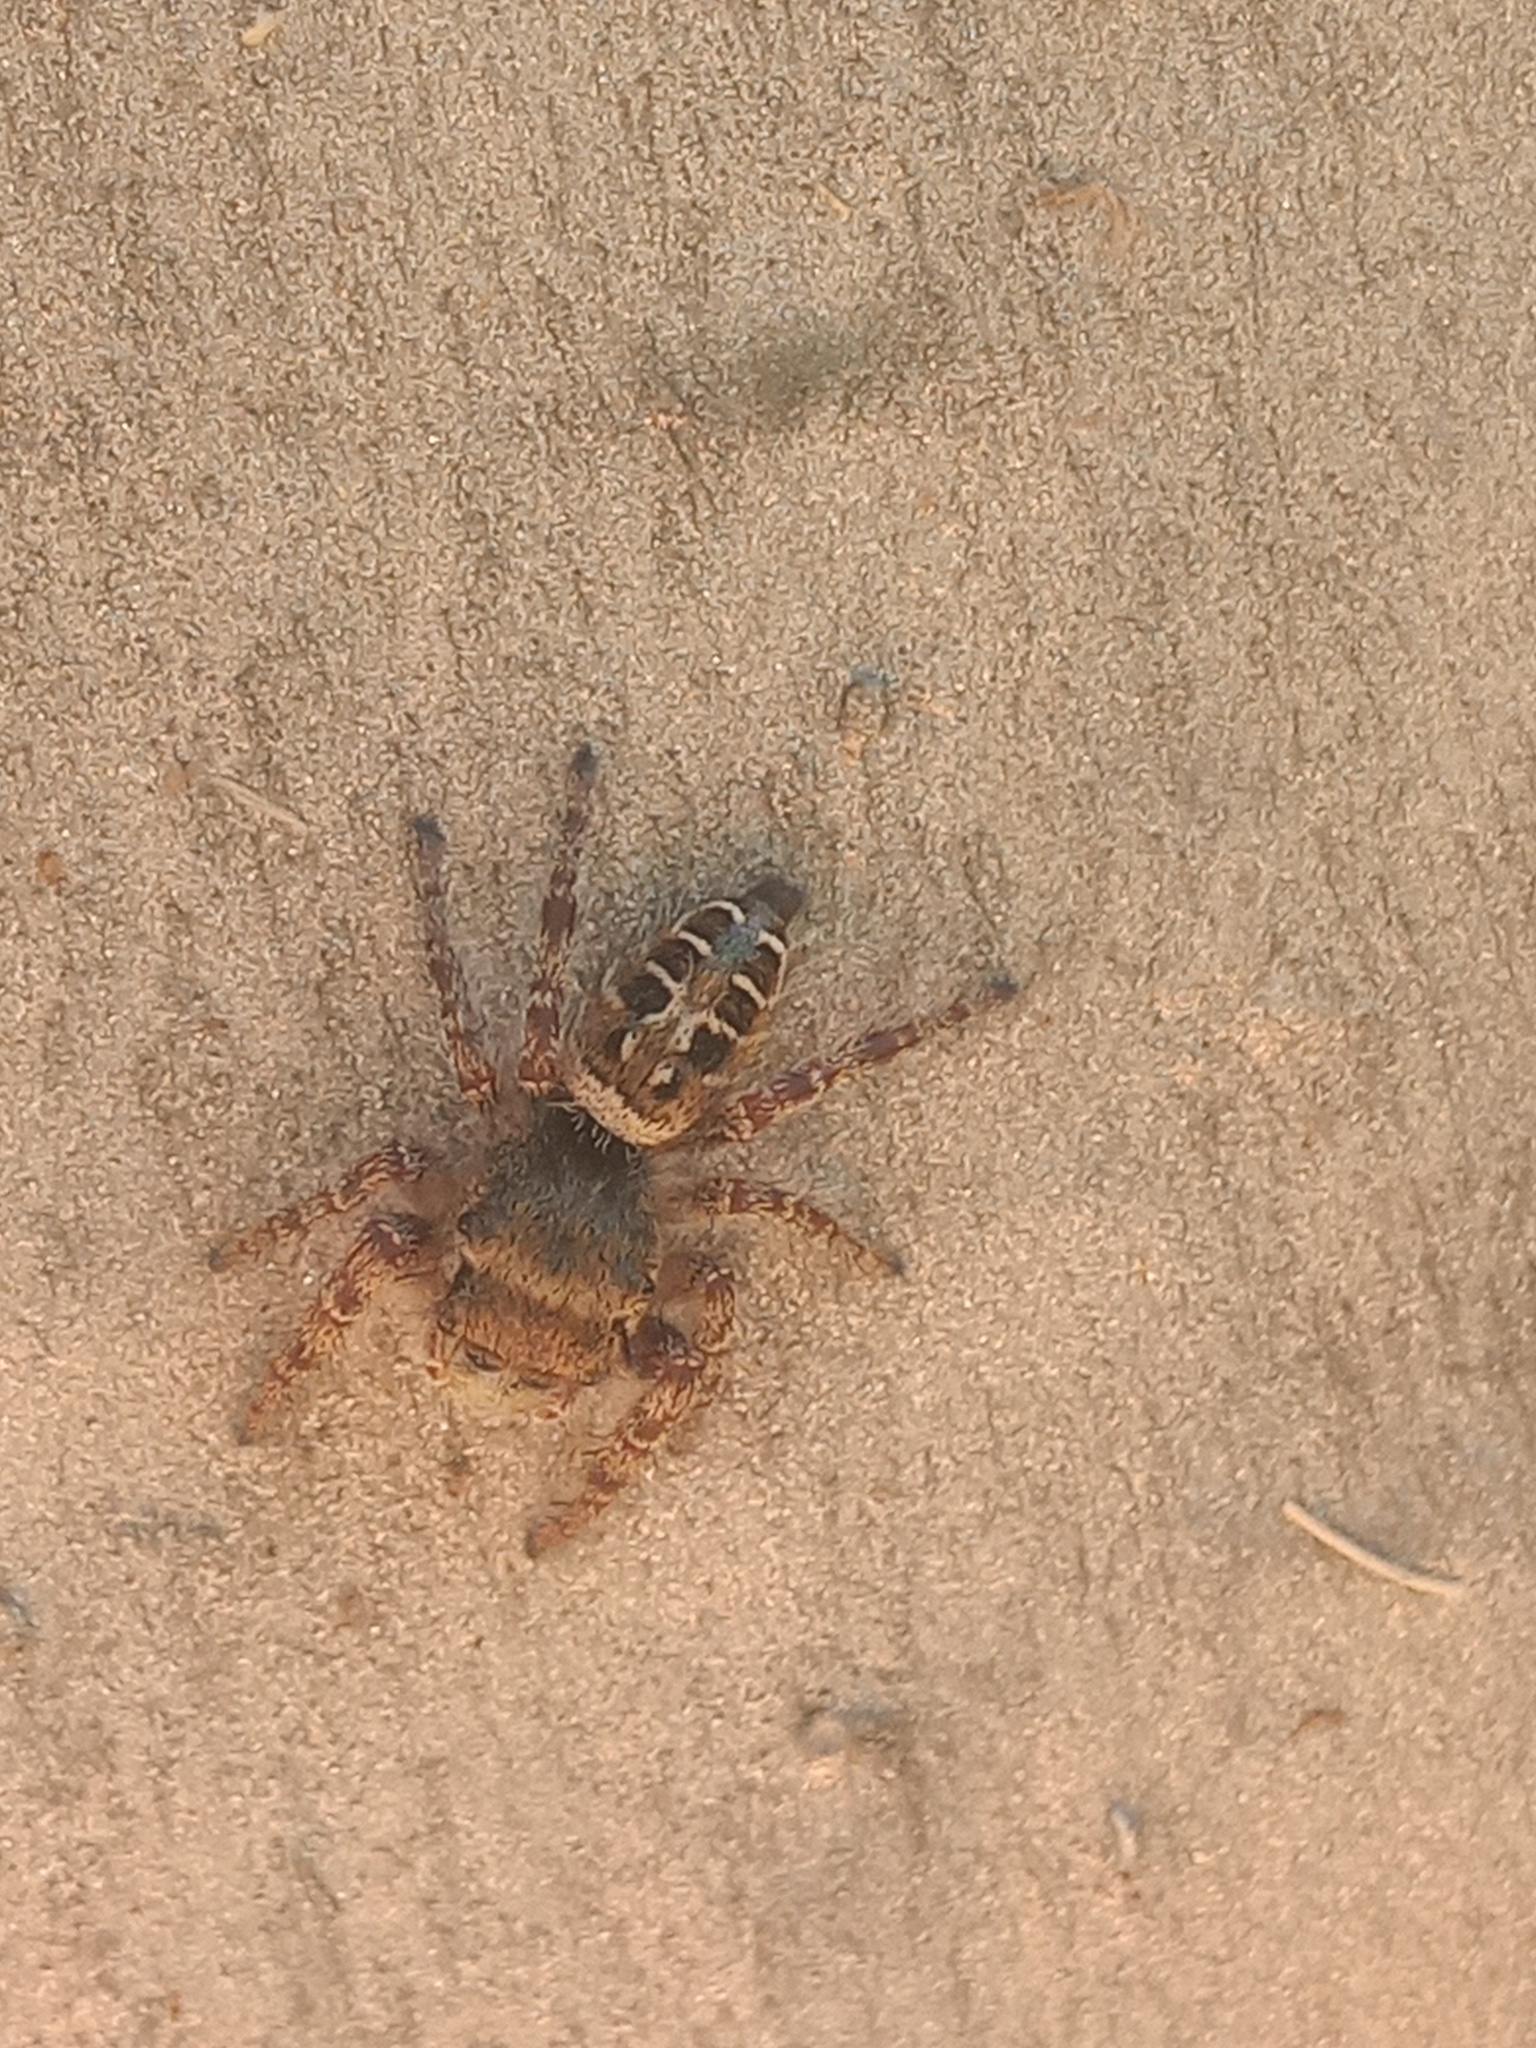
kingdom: Animalia
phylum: Arthropoda
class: Arachnida
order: Araneae
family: Salticidae
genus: Phidippus
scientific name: Phidippus arizonensis
